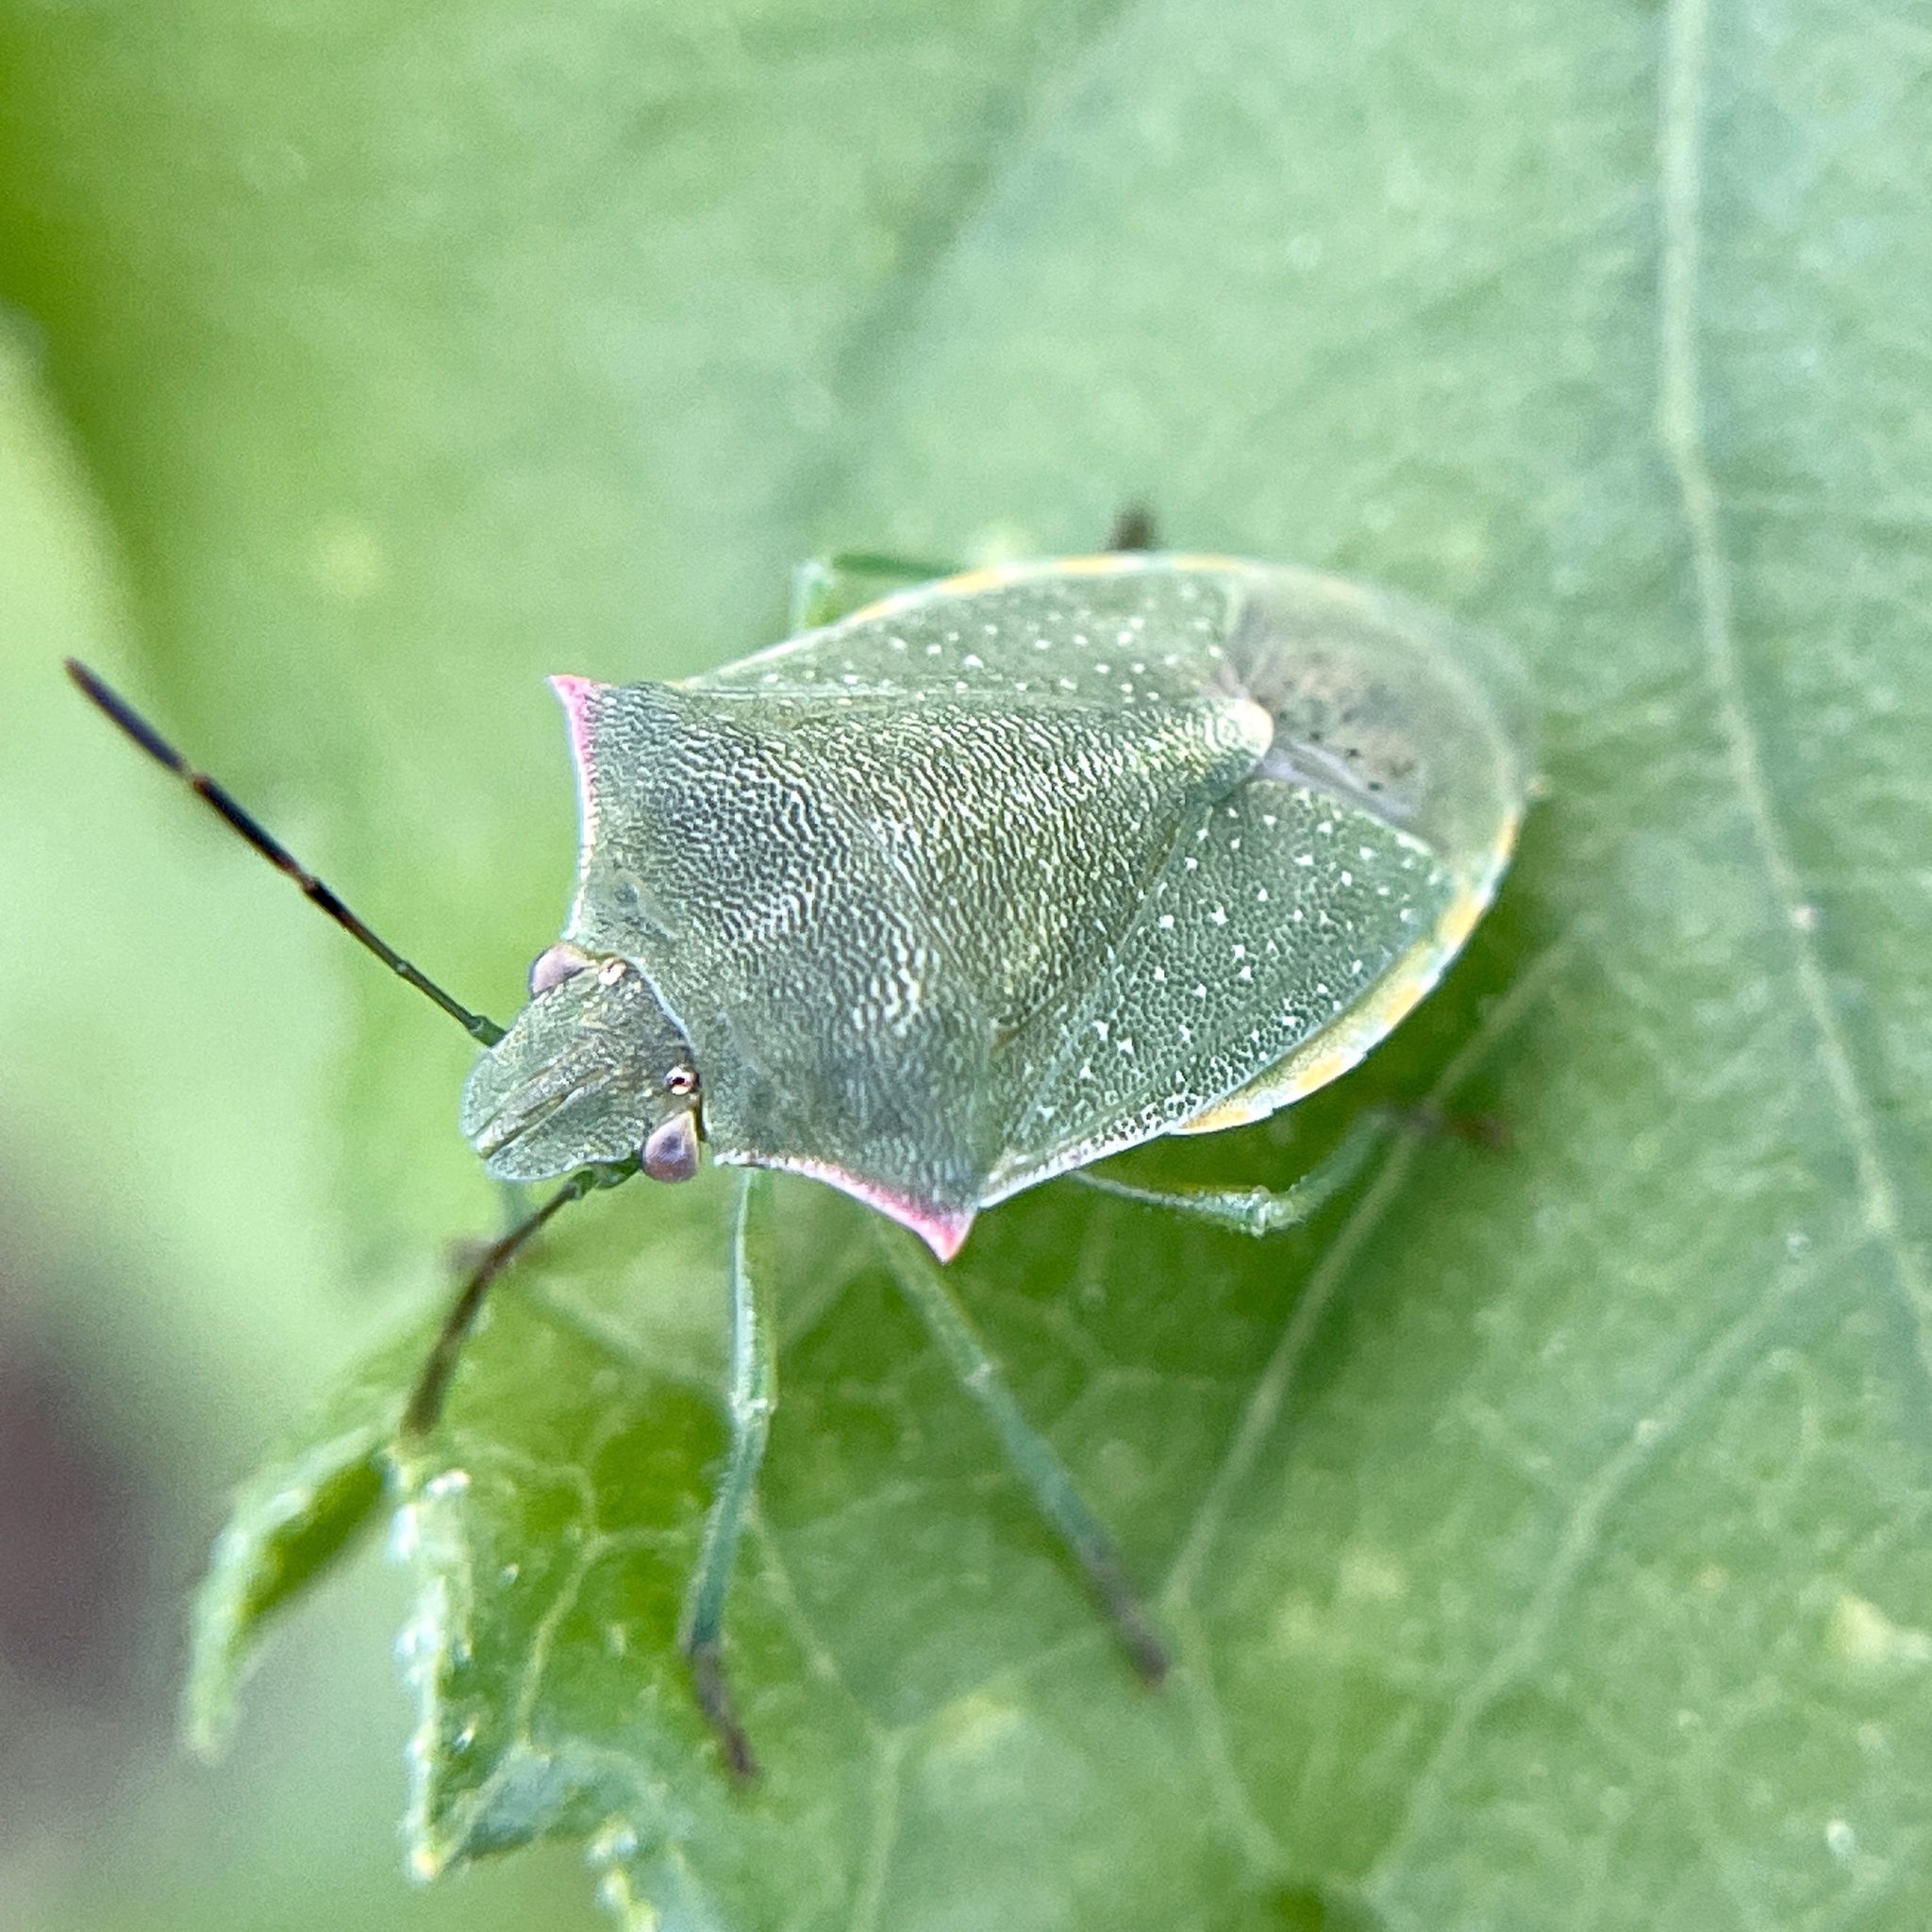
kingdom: Animalia
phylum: Arthropoda
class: Insecta
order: Hemiptera
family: Pentatomidae
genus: Thyanta
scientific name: Thyanta accerra
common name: Stink bug
